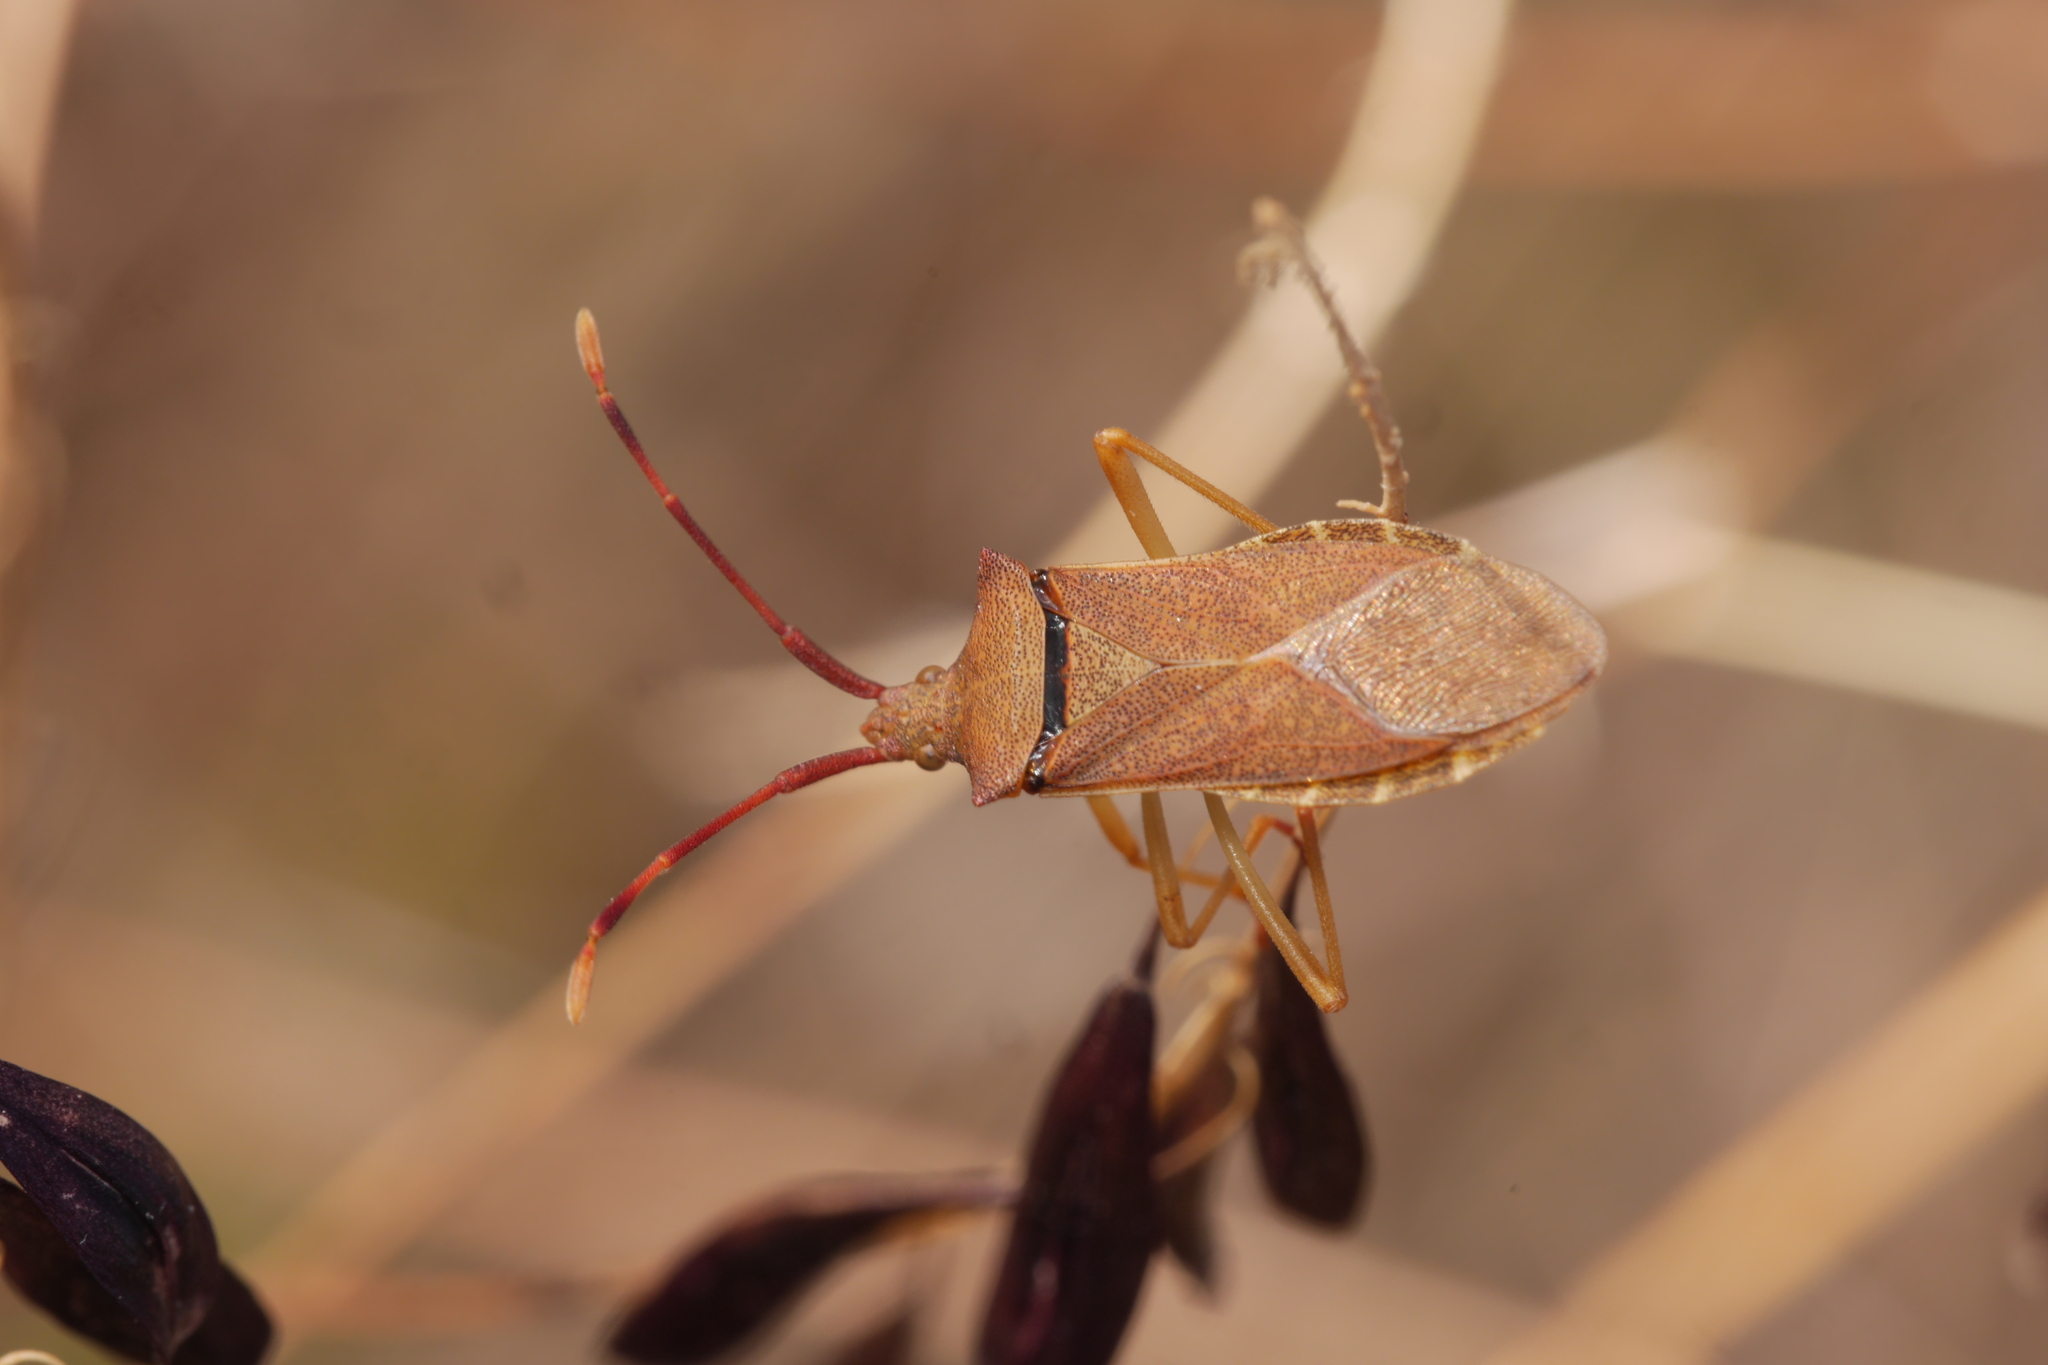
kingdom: Animalia
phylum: Arthropoda
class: Insecta
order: Hemiptera
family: Coreidae
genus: Gonocerus
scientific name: Gonocerus acuteangulatus
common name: Box bug
